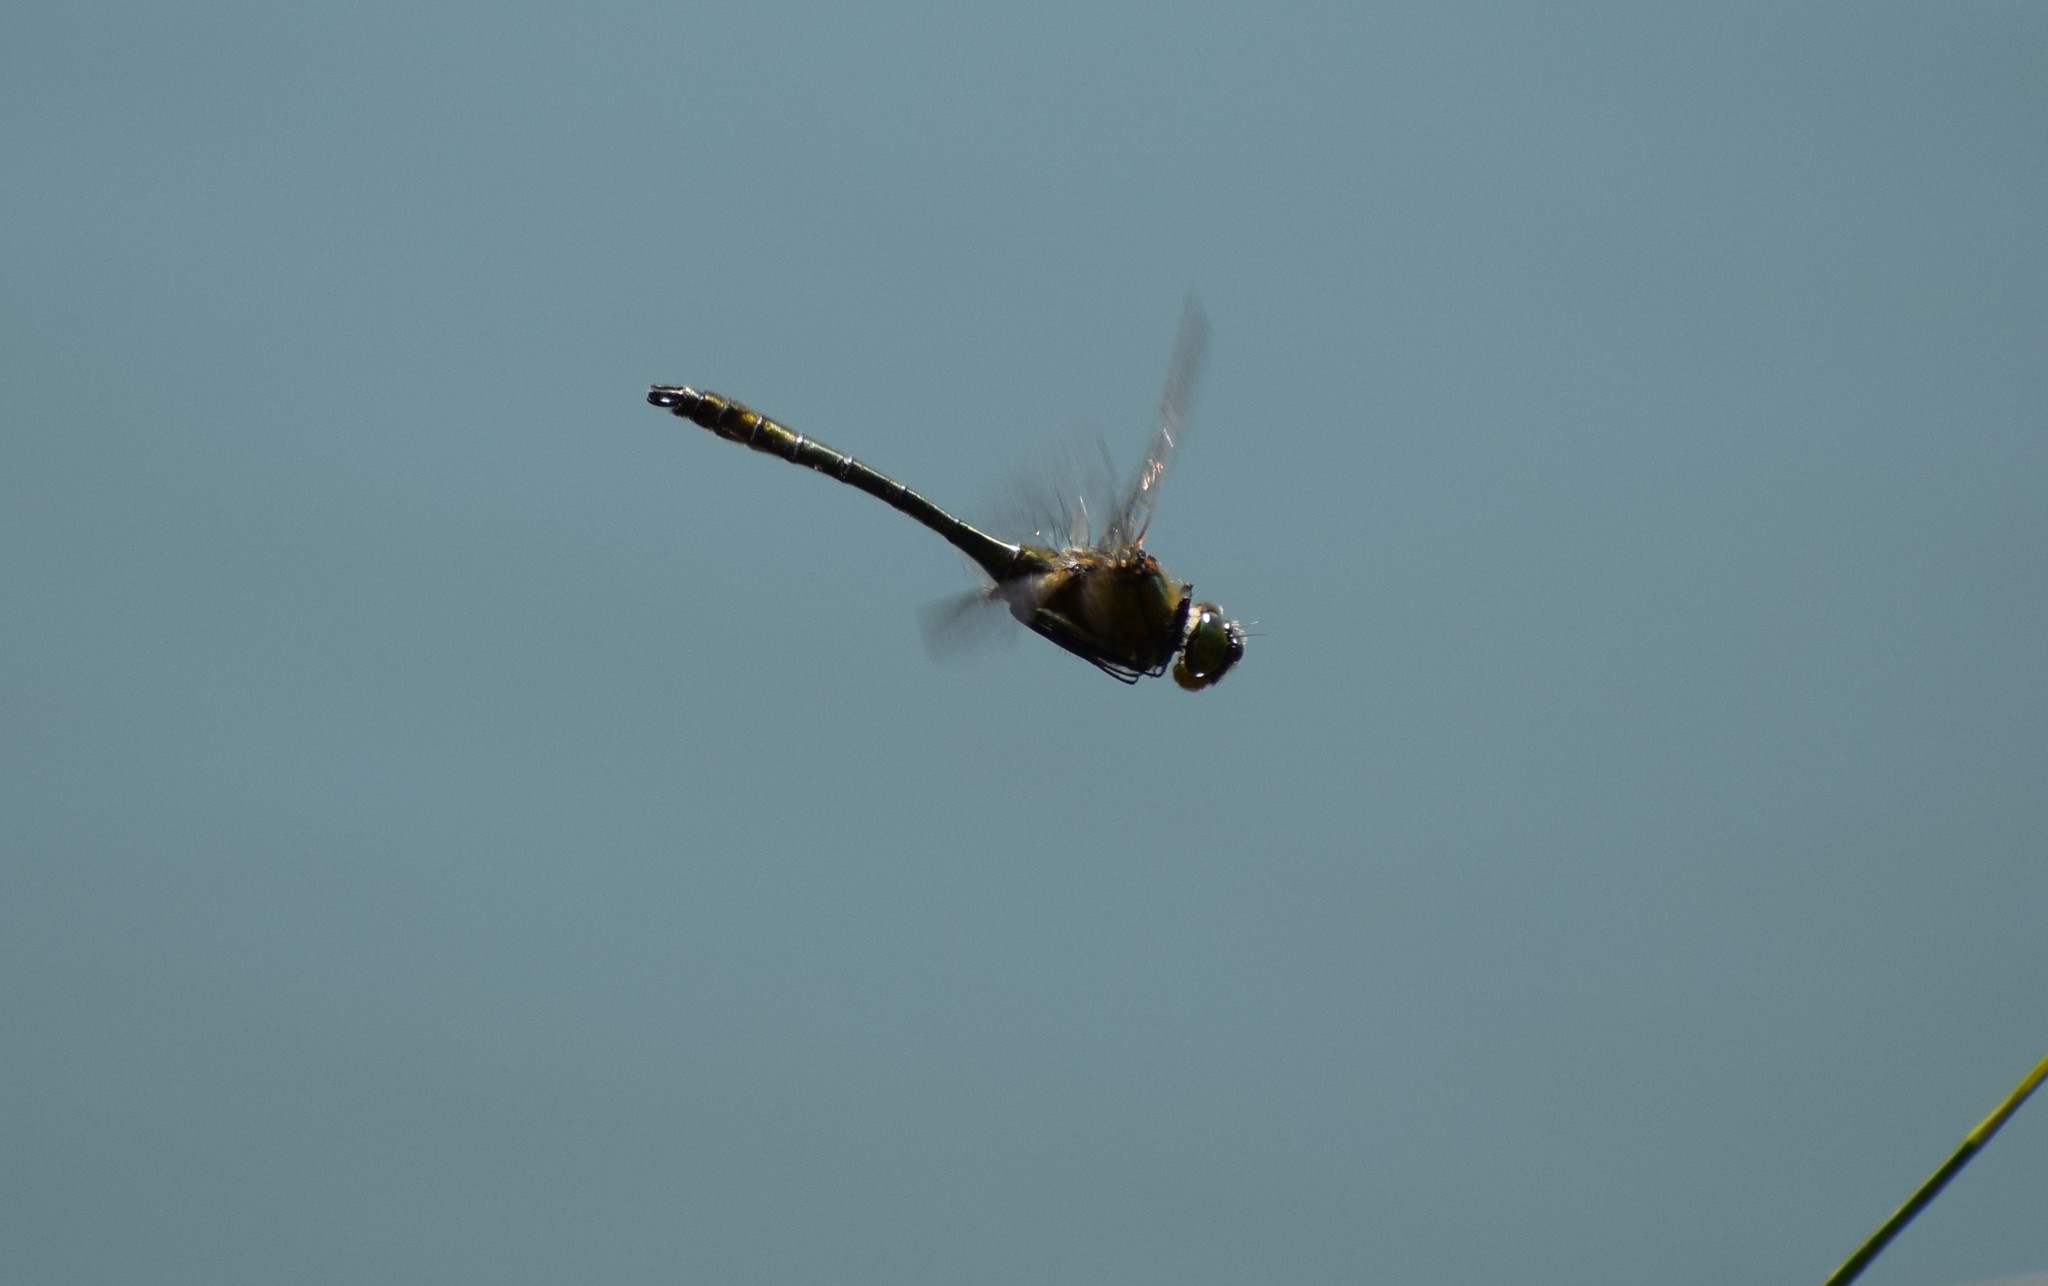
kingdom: Animalia
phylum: Arthropoda
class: Insecta
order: Odonata
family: Corduliidae
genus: Cordulia
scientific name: Cordulia aenea
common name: Downy emerald
